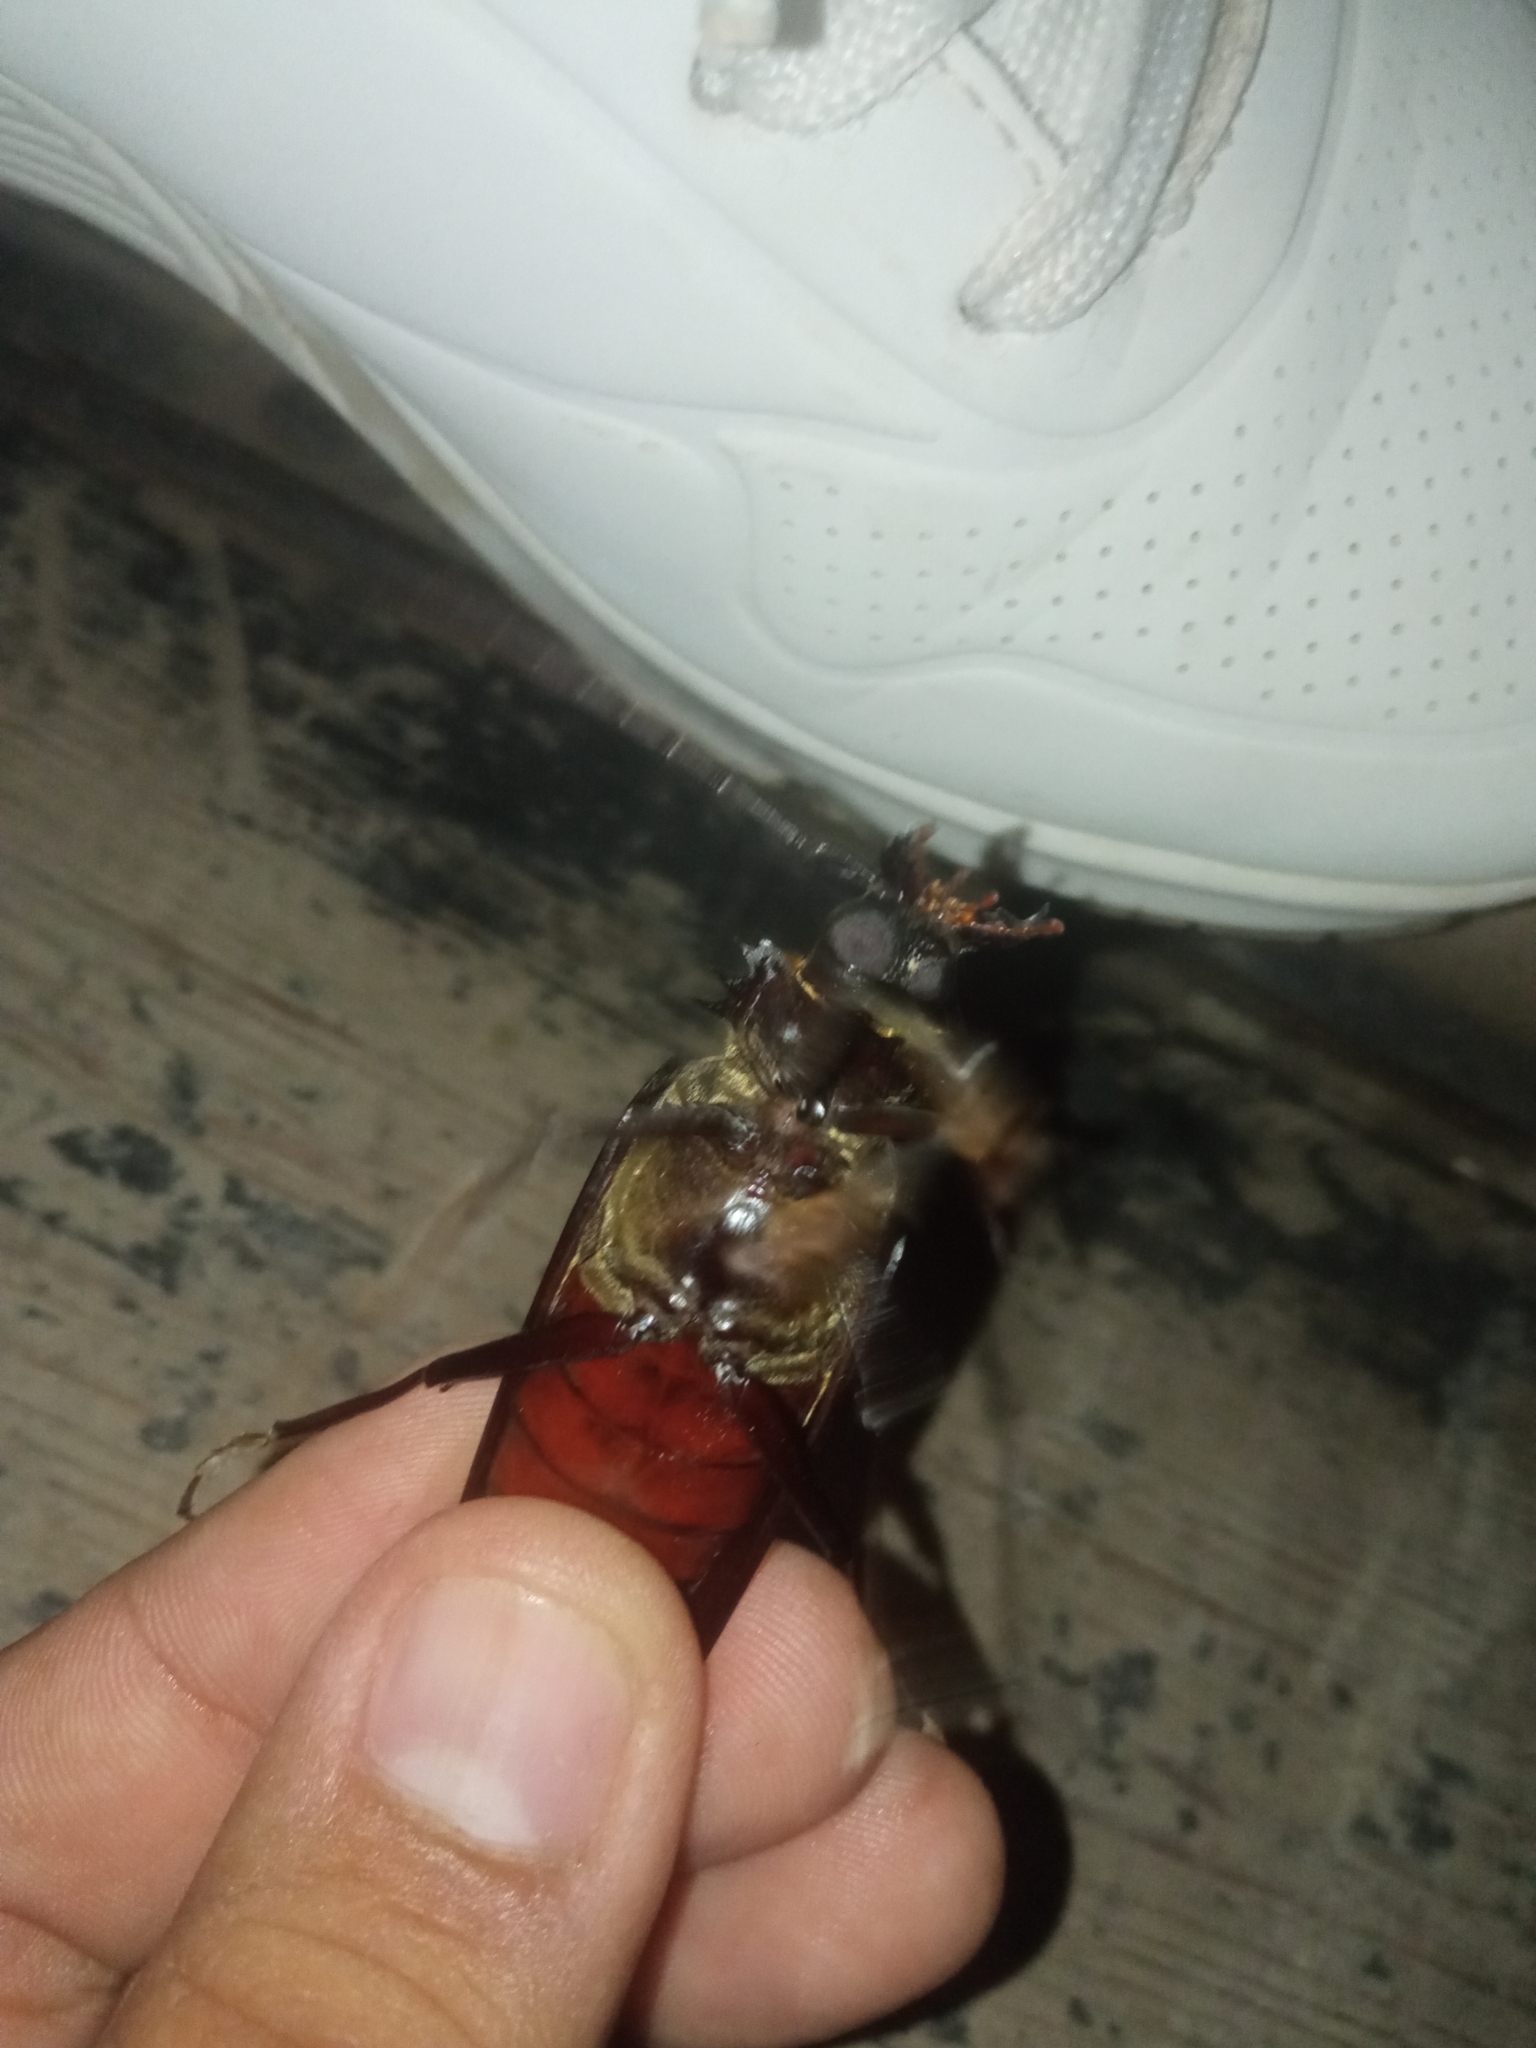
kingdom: Animalia
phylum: Arthropoda
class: Insecta
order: Coleoptera
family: Cerambycidae
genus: Derobrachus
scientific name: Derobrachus geminatus
